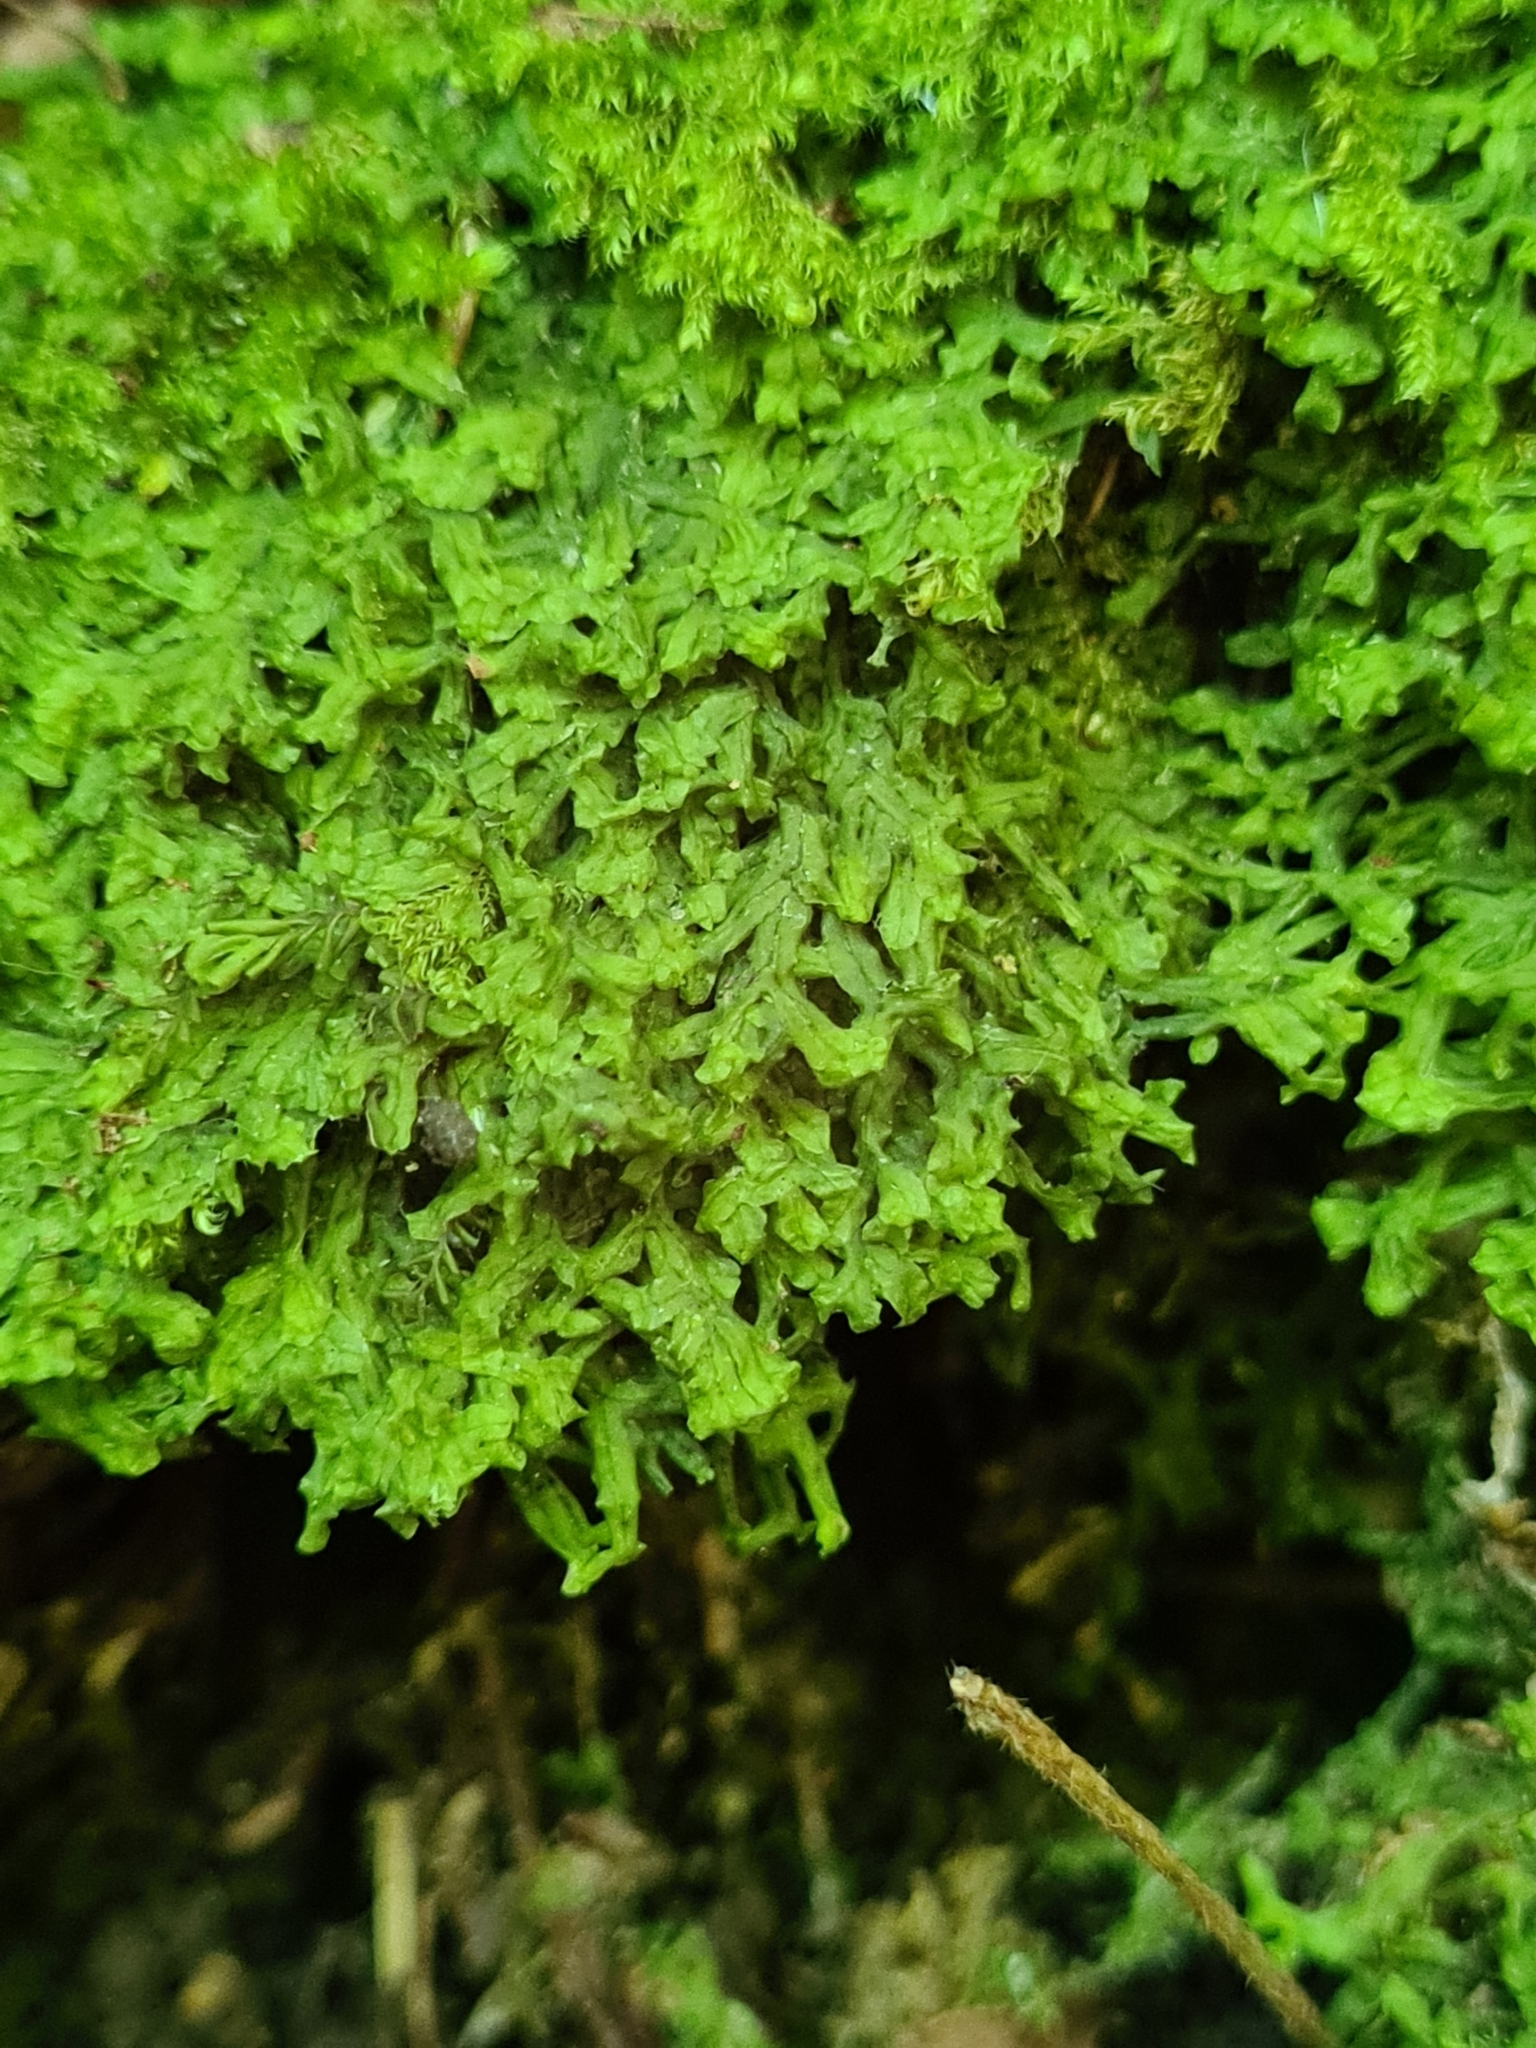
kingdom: Plantae
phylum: Marchantiophyta
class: Jungermanniopsida
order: Metzgeriales
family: Metzgeriaceae
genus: Metzgeria
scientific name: Metzgeria conjugata
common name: Rock veilwort
